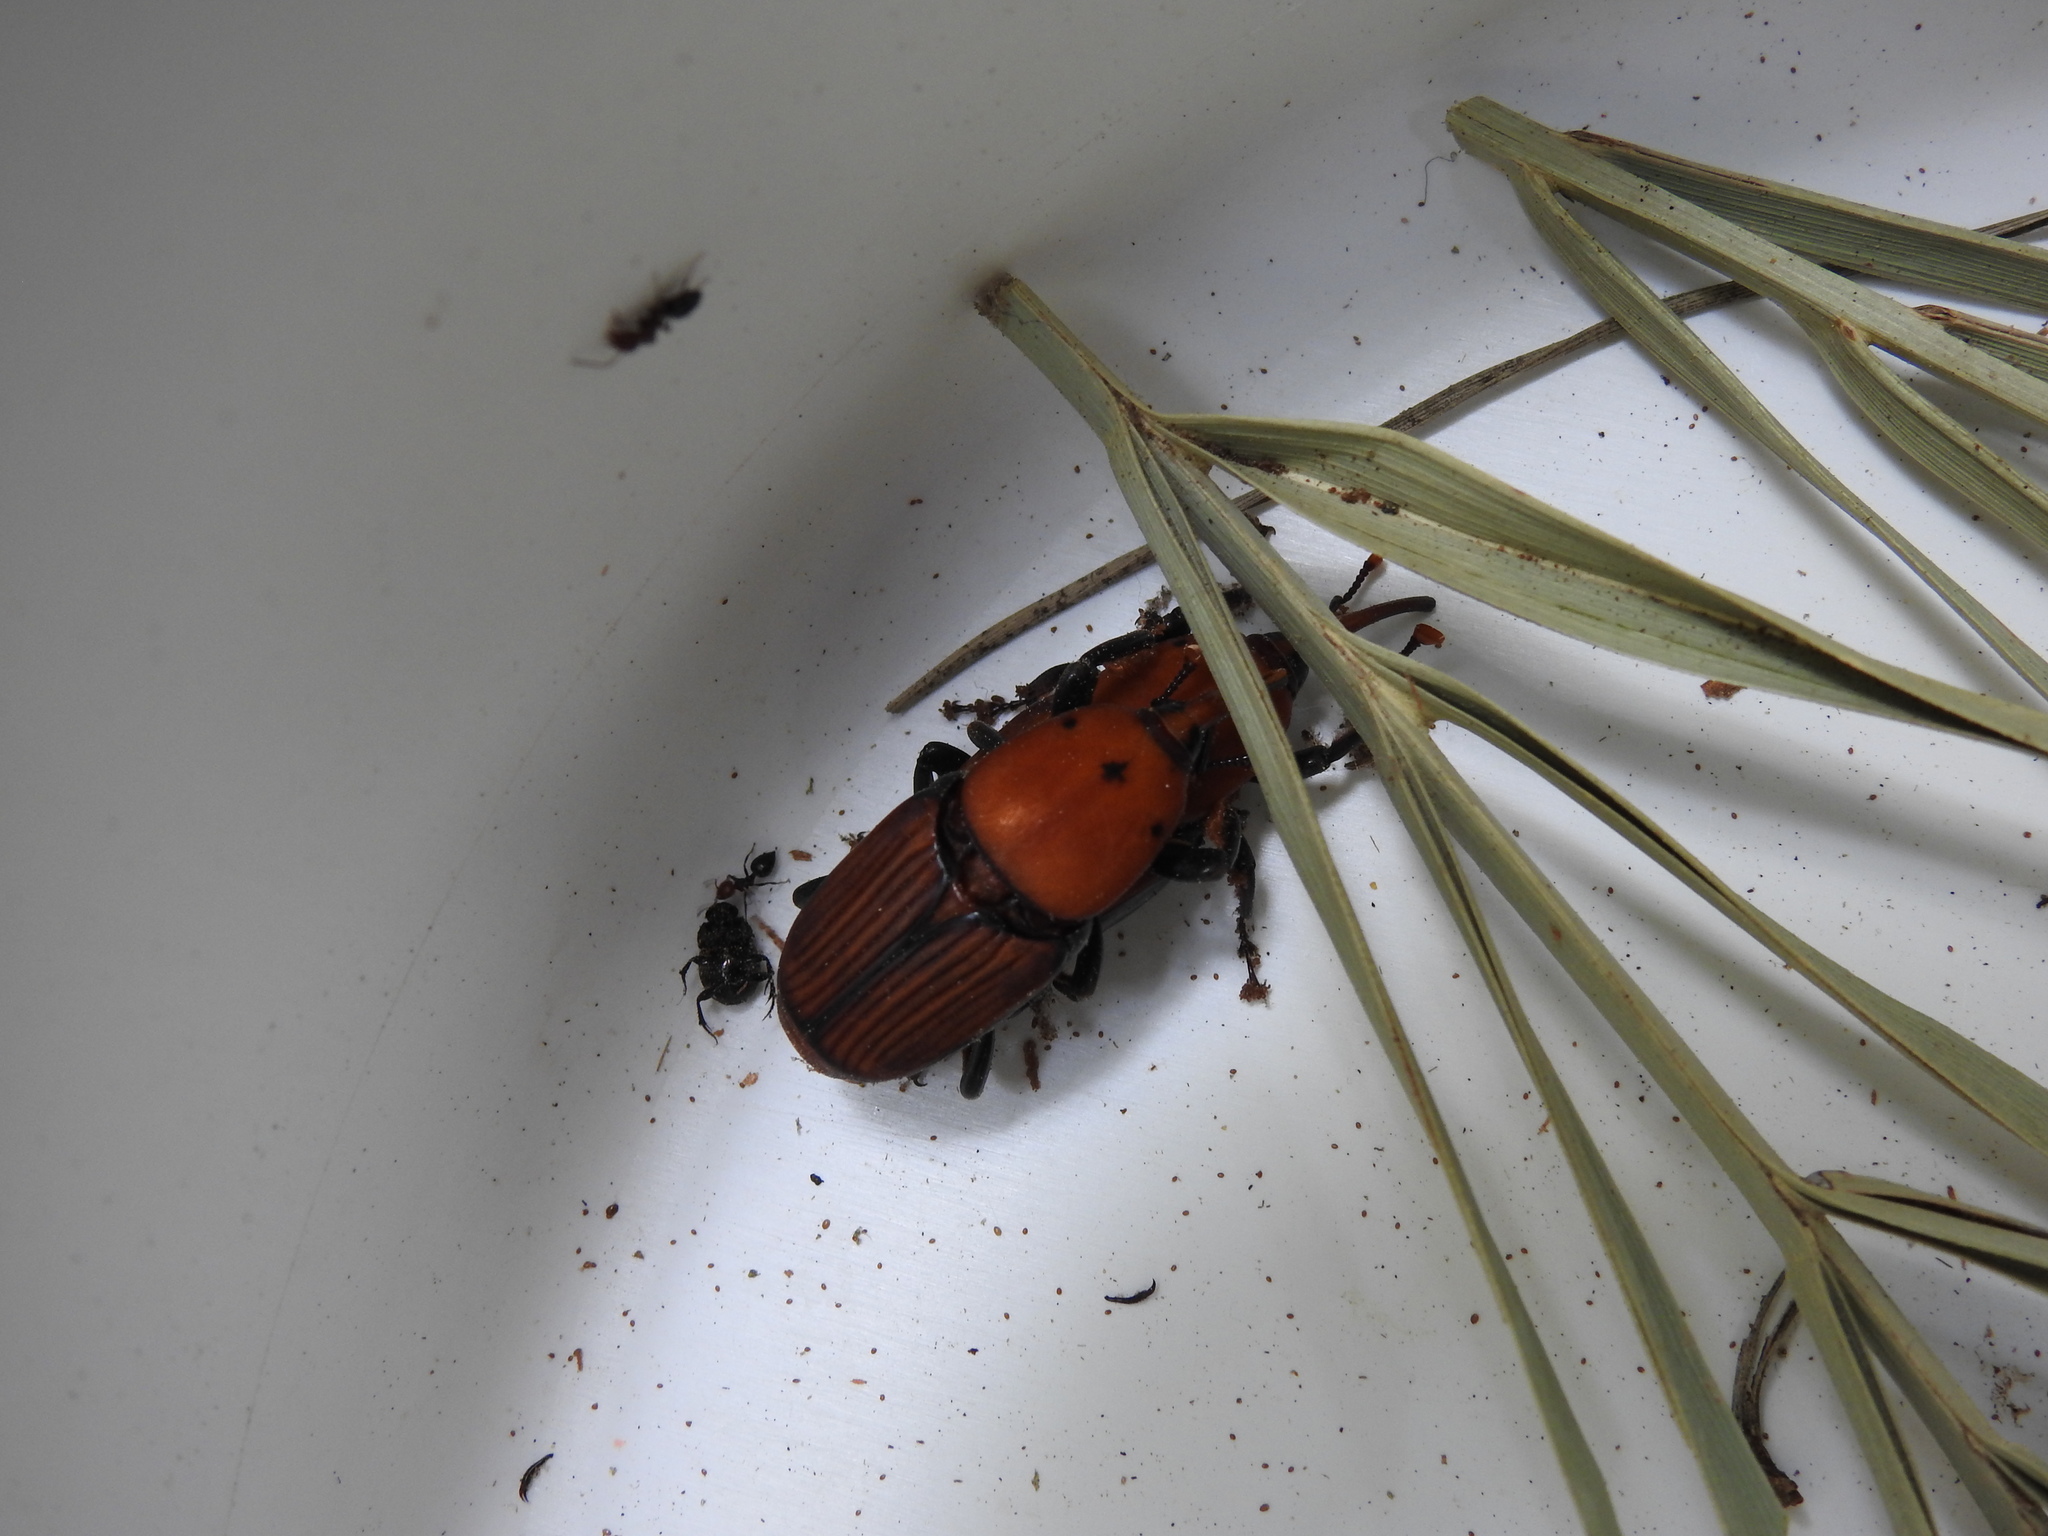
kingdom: Animalia
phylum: Arthropoda
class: Insecta
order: Coleoptera
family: Dryophthoridae
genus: Rhynchophorus
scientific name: Rhynchophorus ferrugineus
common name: Red palm weevil
